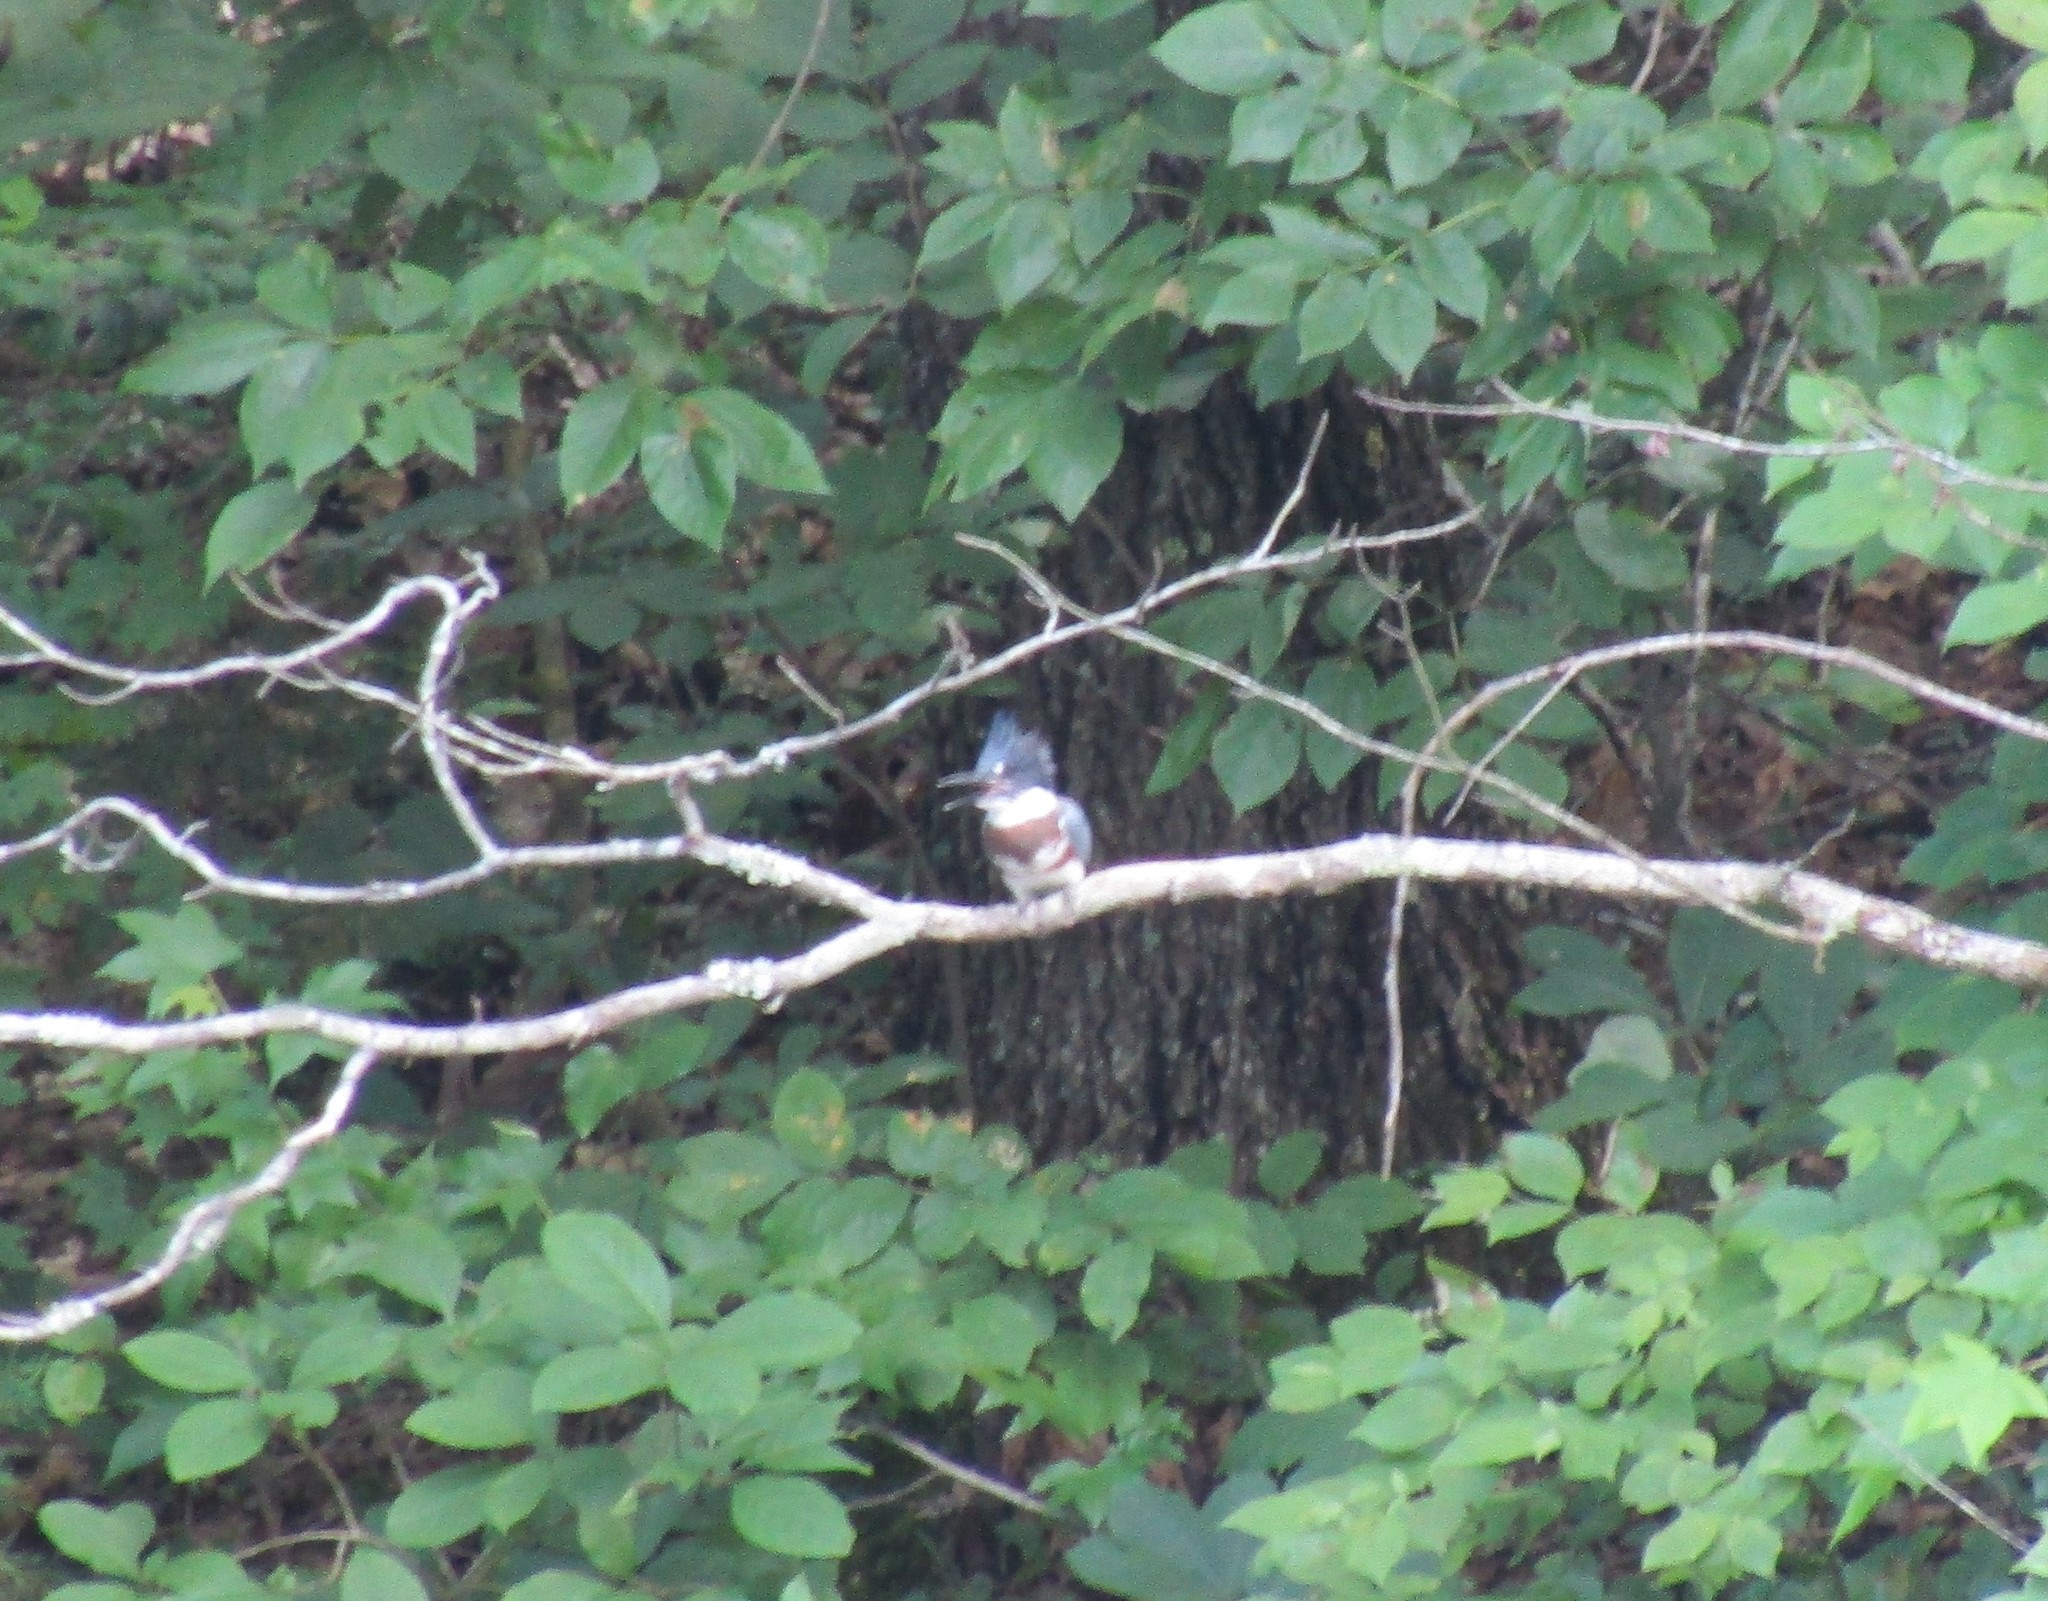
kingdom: Animalia
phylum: Chordata
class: Aves
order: Coraciiformes
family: Alcedinidae
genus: Megaceryle
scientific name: Megaceryle alcyon
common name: Belted kingfisher
